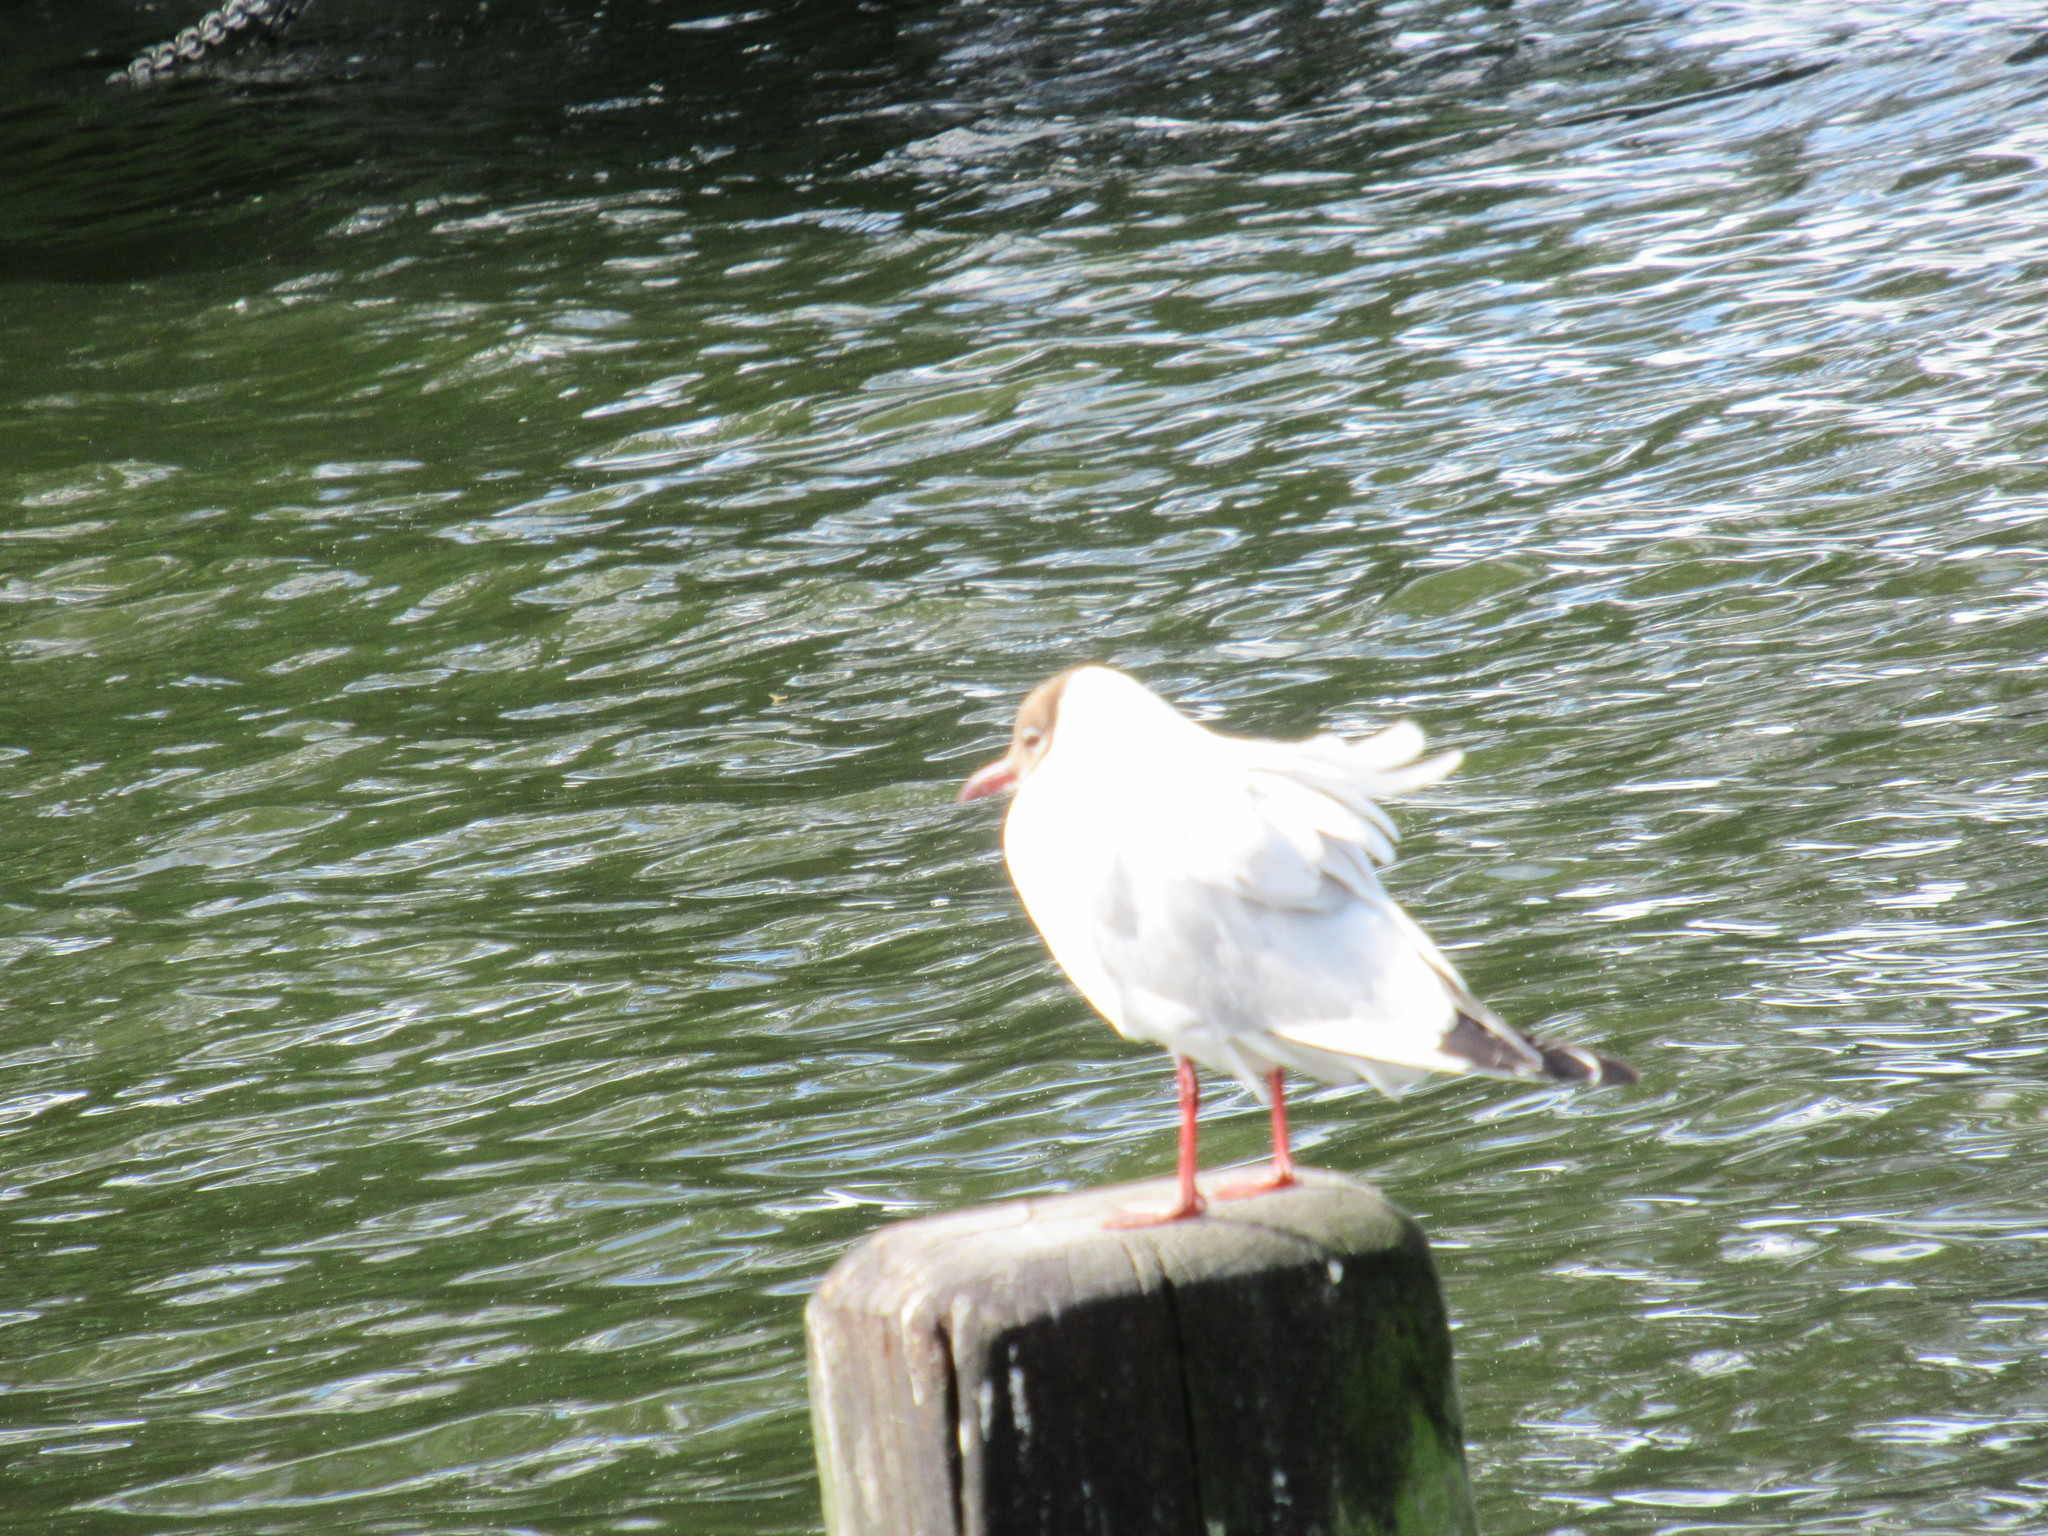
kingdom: Animalia
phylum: Chordata
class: Aves
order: Charadriiformes
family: Laridae
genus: Chroicocephalus
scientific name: Chroicocephalus ridibundus
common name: Black-headed gull
